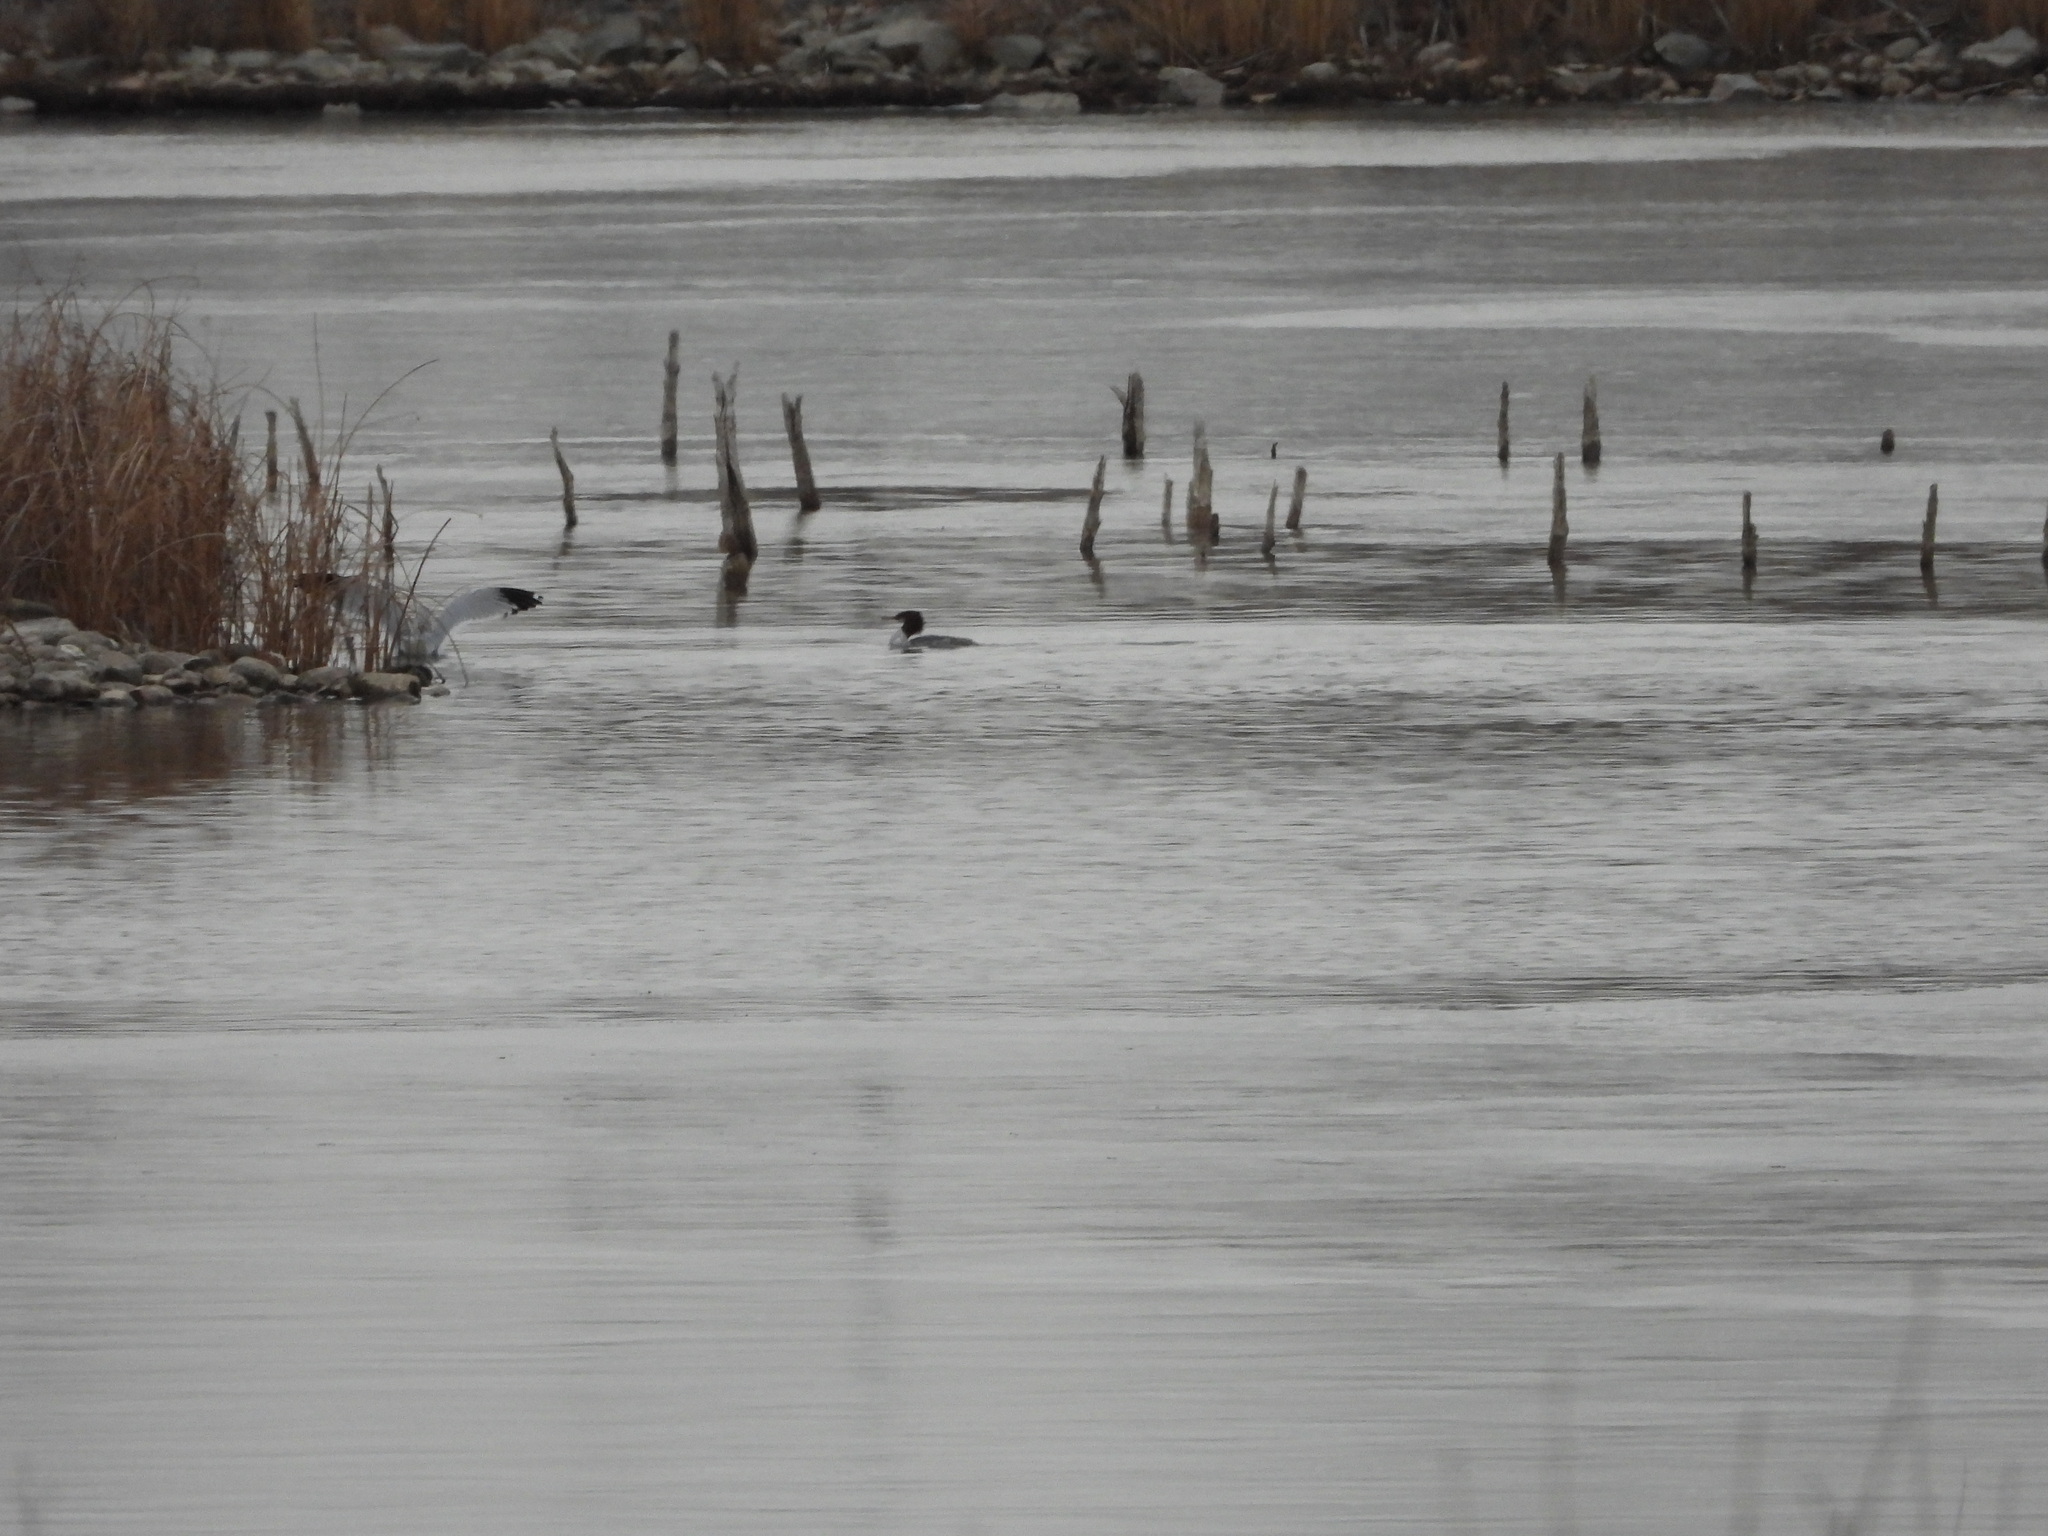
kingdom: Animalia
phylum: Chordata
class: Aves
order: Anseriformes
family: Anatidae
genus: Mergus
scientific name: Mergus merganser
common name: Common merganser
